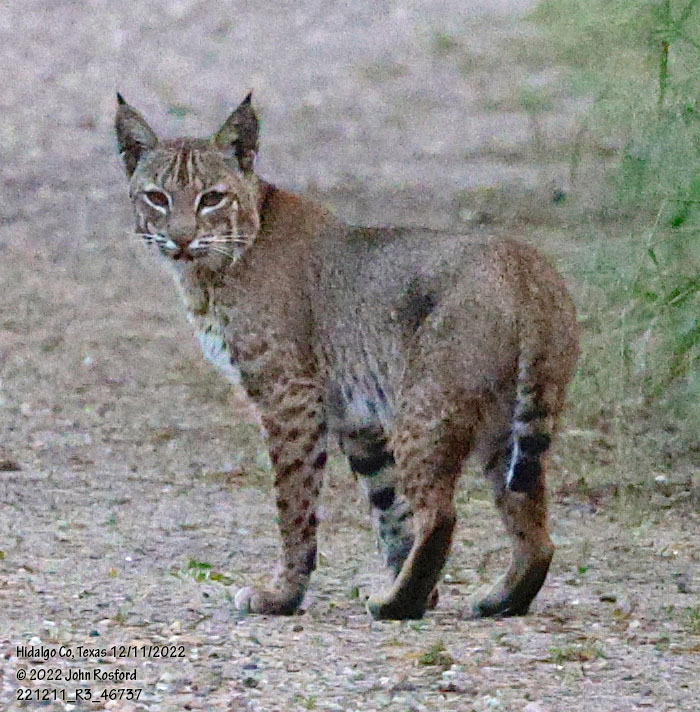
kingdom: Animalia
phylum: Chordata
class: Mammalia
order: Carnivora
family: Felidae
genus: Lynx
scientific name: Lynx rufus
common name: Bobcat
